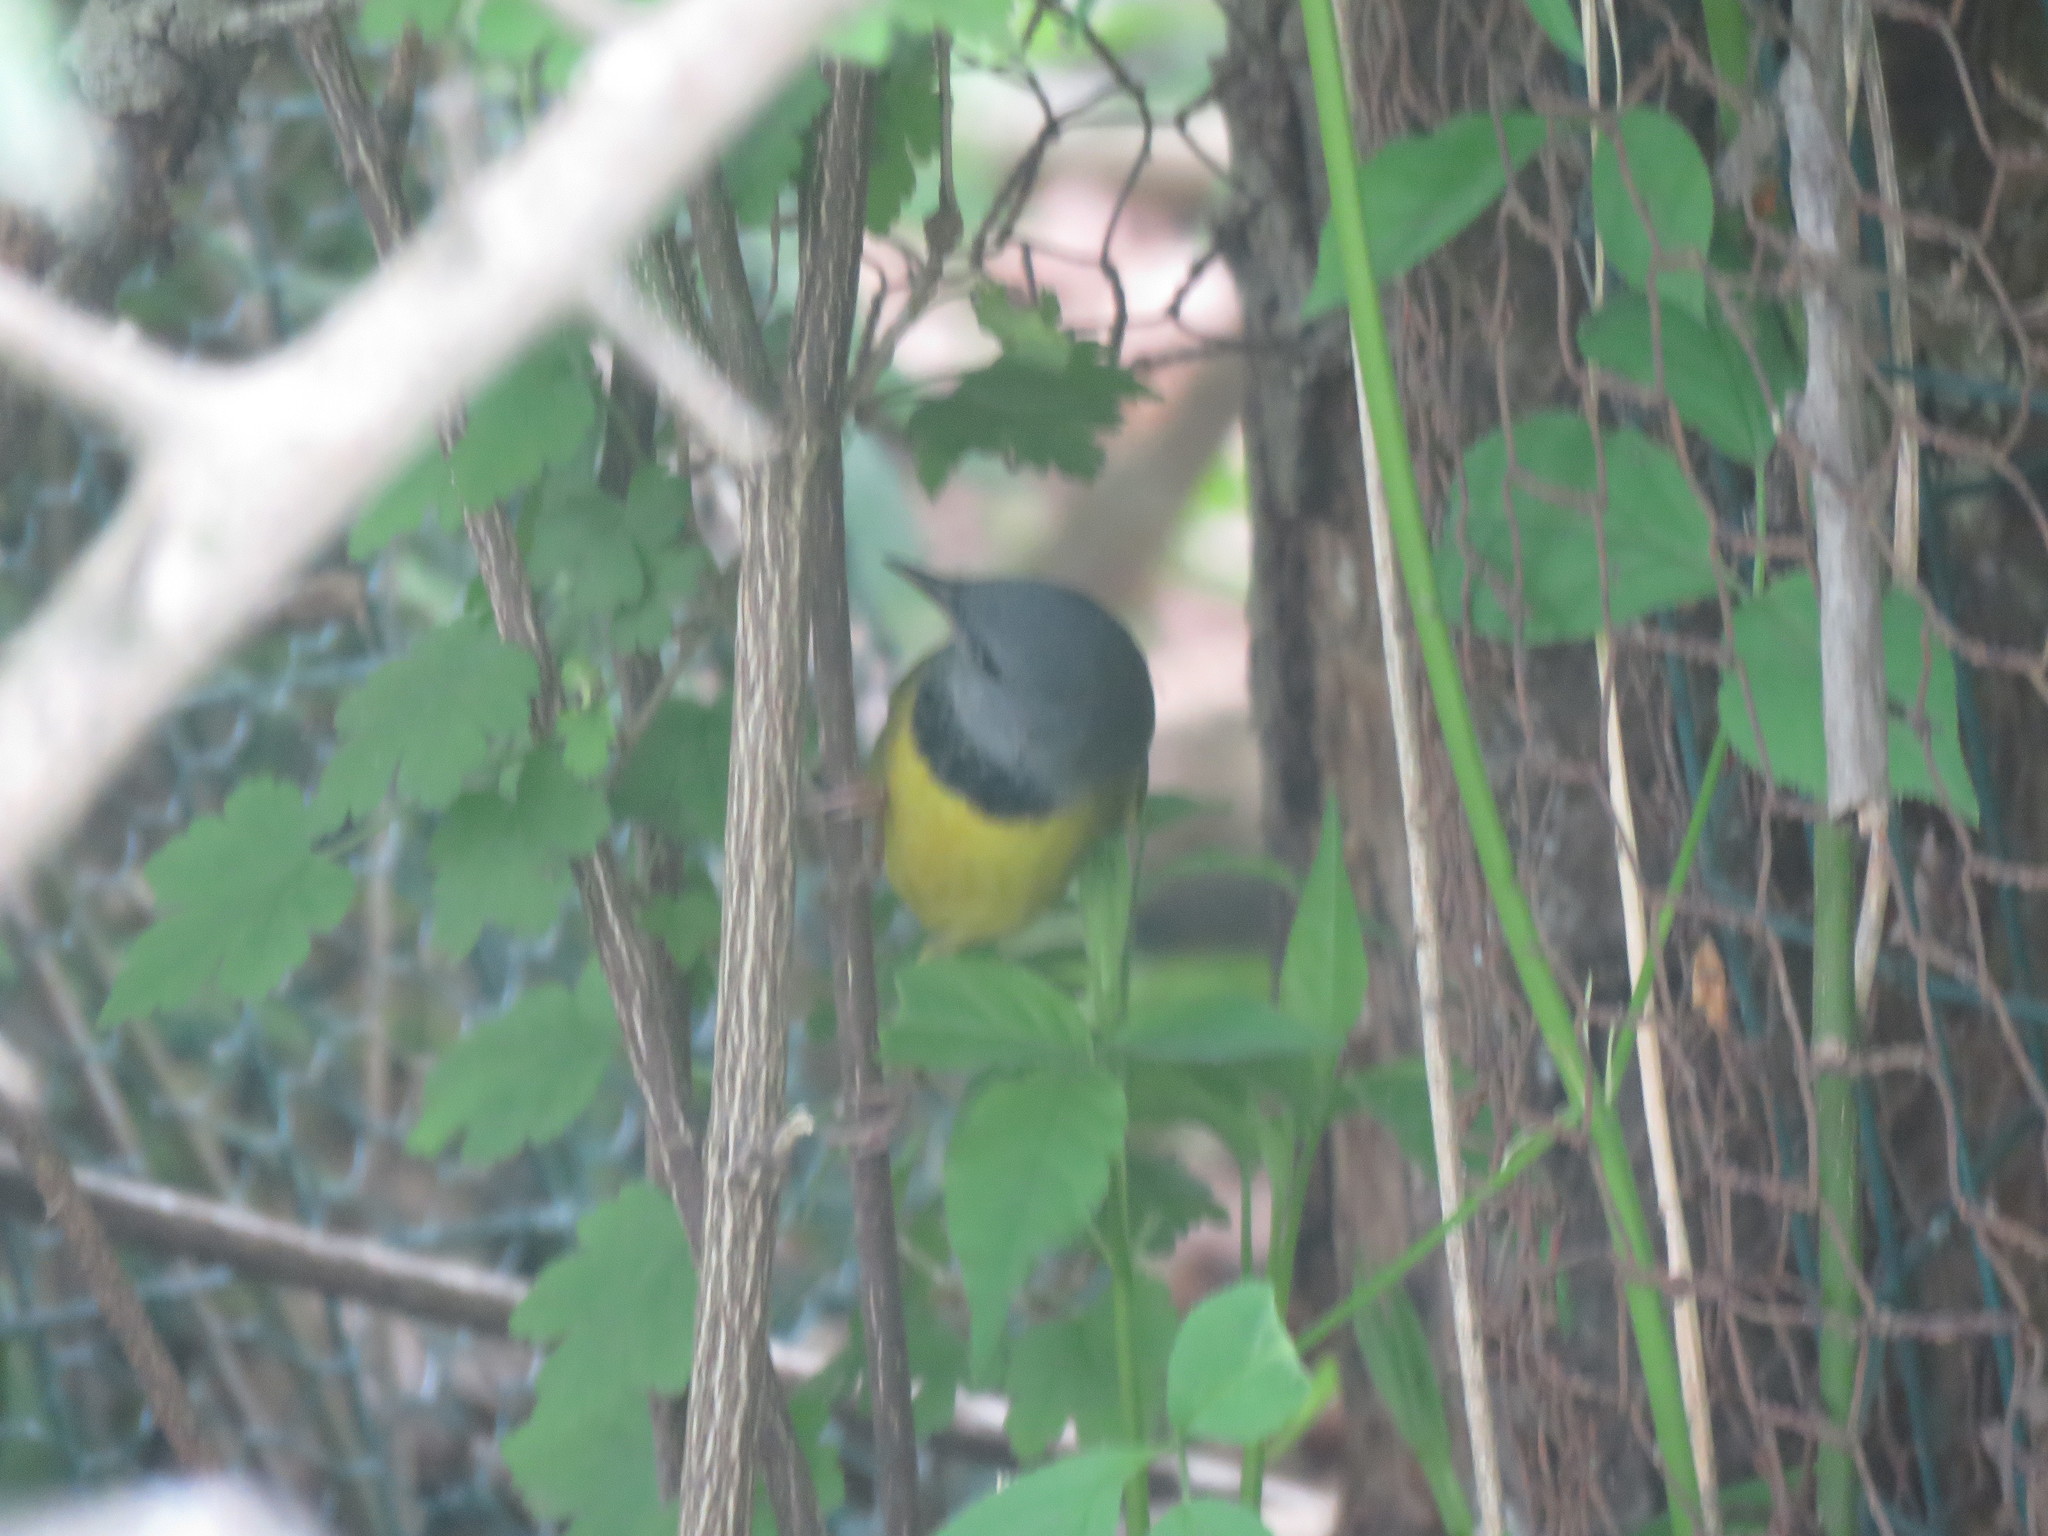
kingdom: Animalia
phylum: Chordata
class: Aves
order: Passeriformes
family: Parulidae
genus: Geothlypis
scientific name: Geothlypis philadelphia
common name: Mourning warbler
